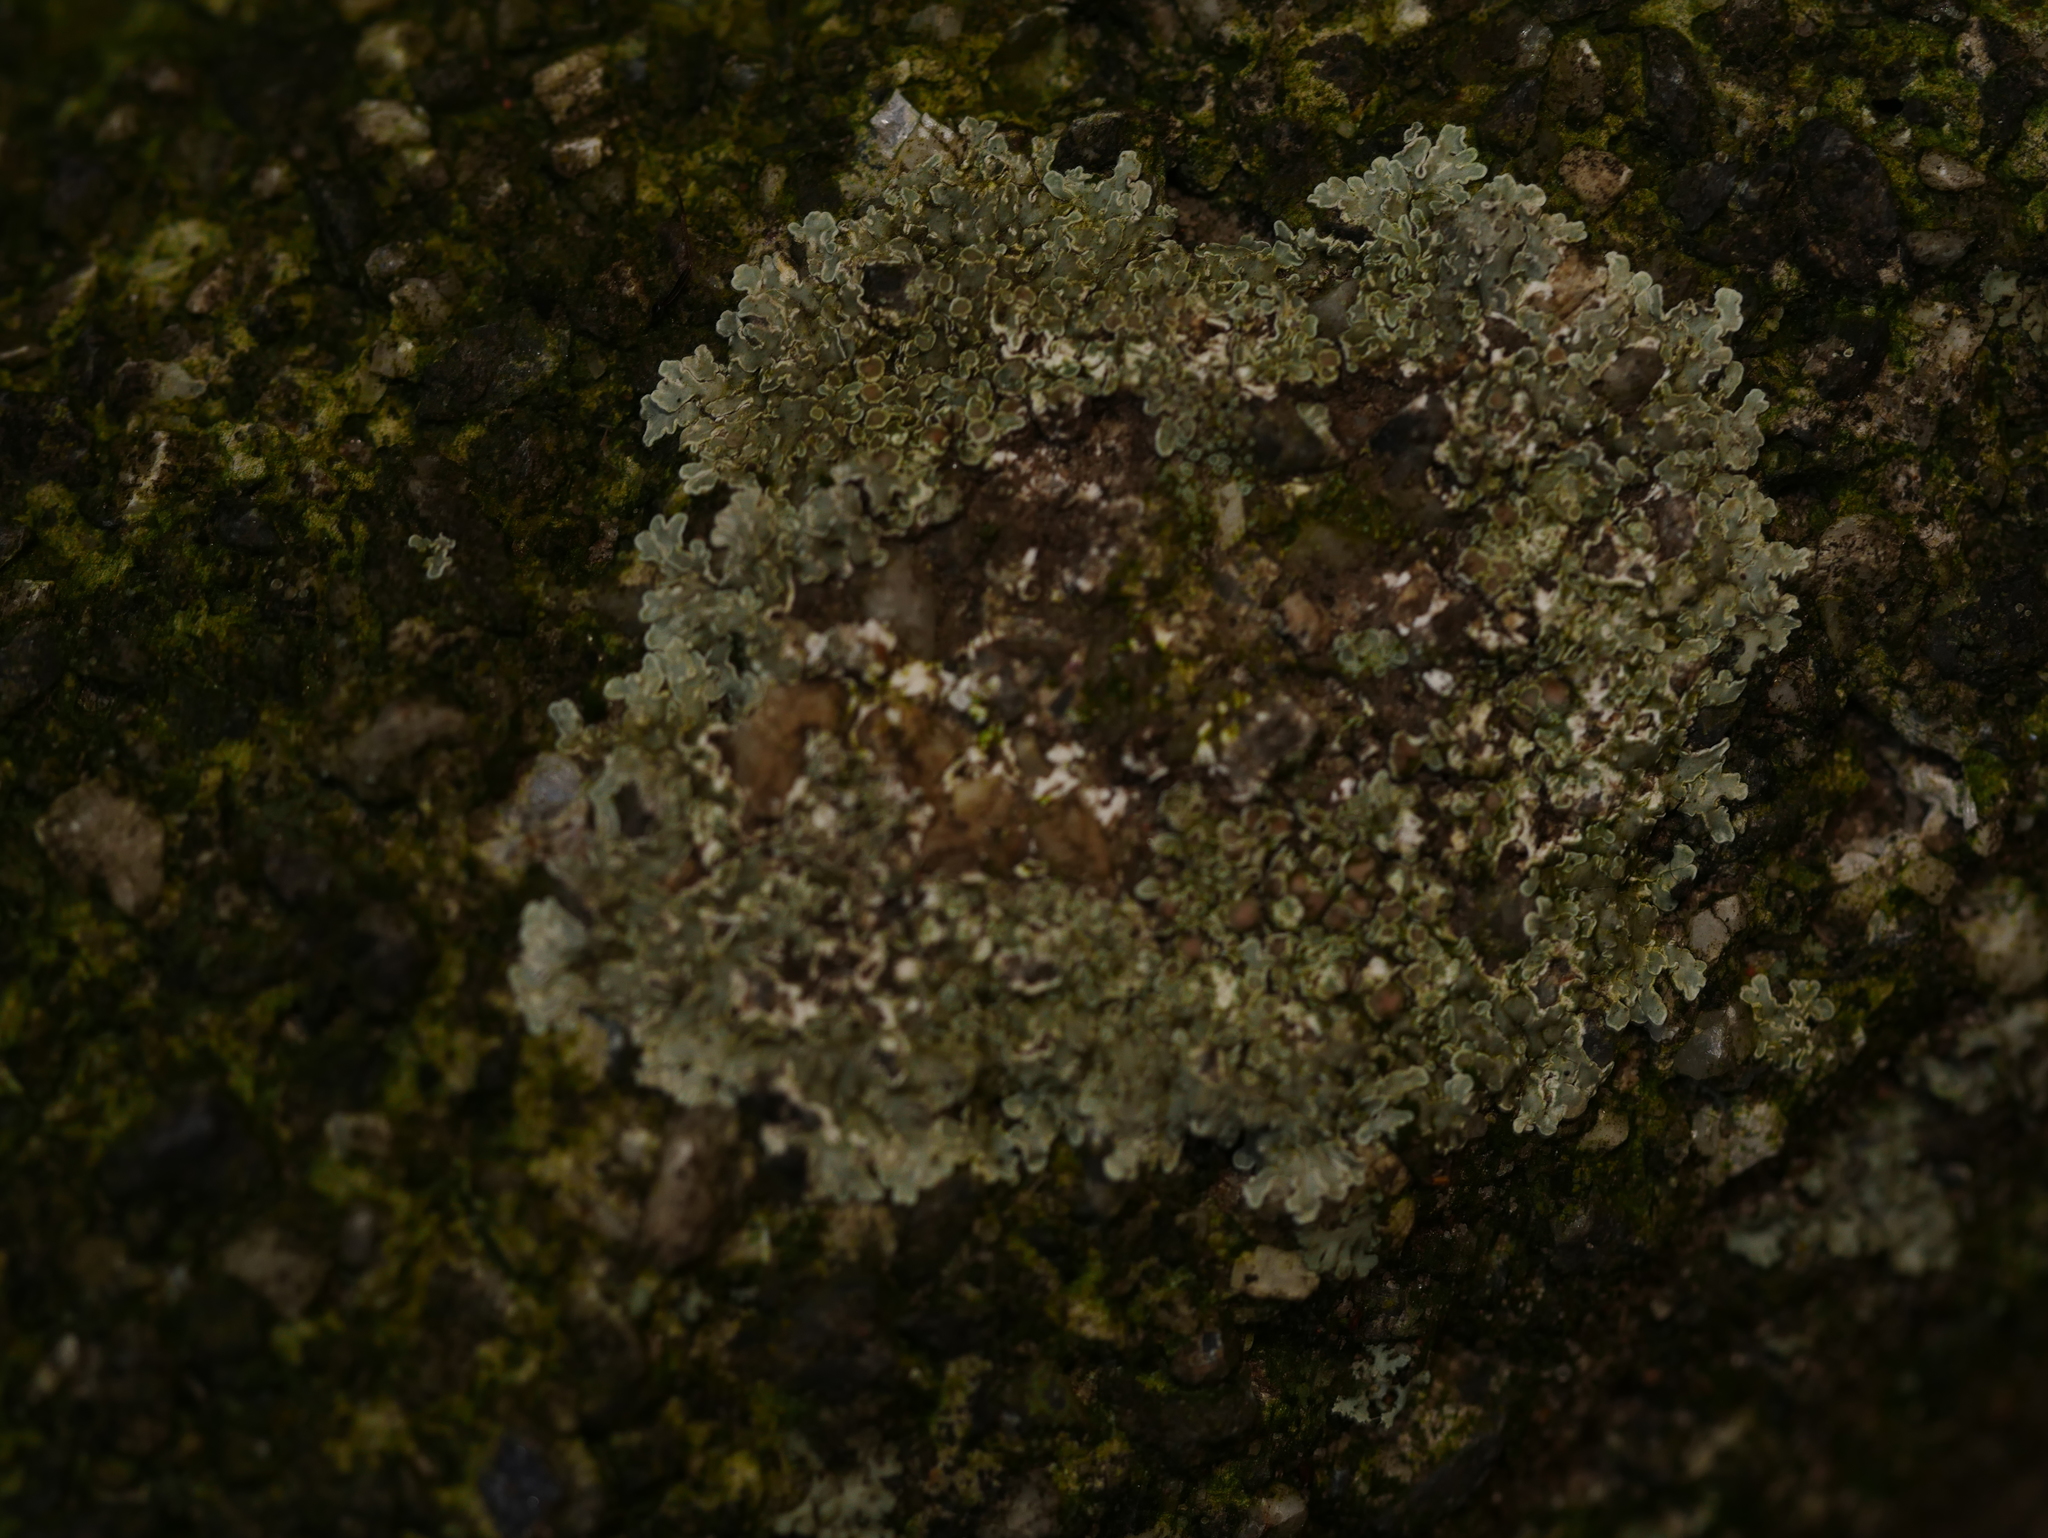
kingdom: Fungi
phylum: Ascomycota
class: Lecanoromycetes
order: Lecanorales
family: Lecanoraceae
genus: Protoparmeliopsis
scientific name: Protoparmeliopsis muralis
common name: Stonewall rim lichen
